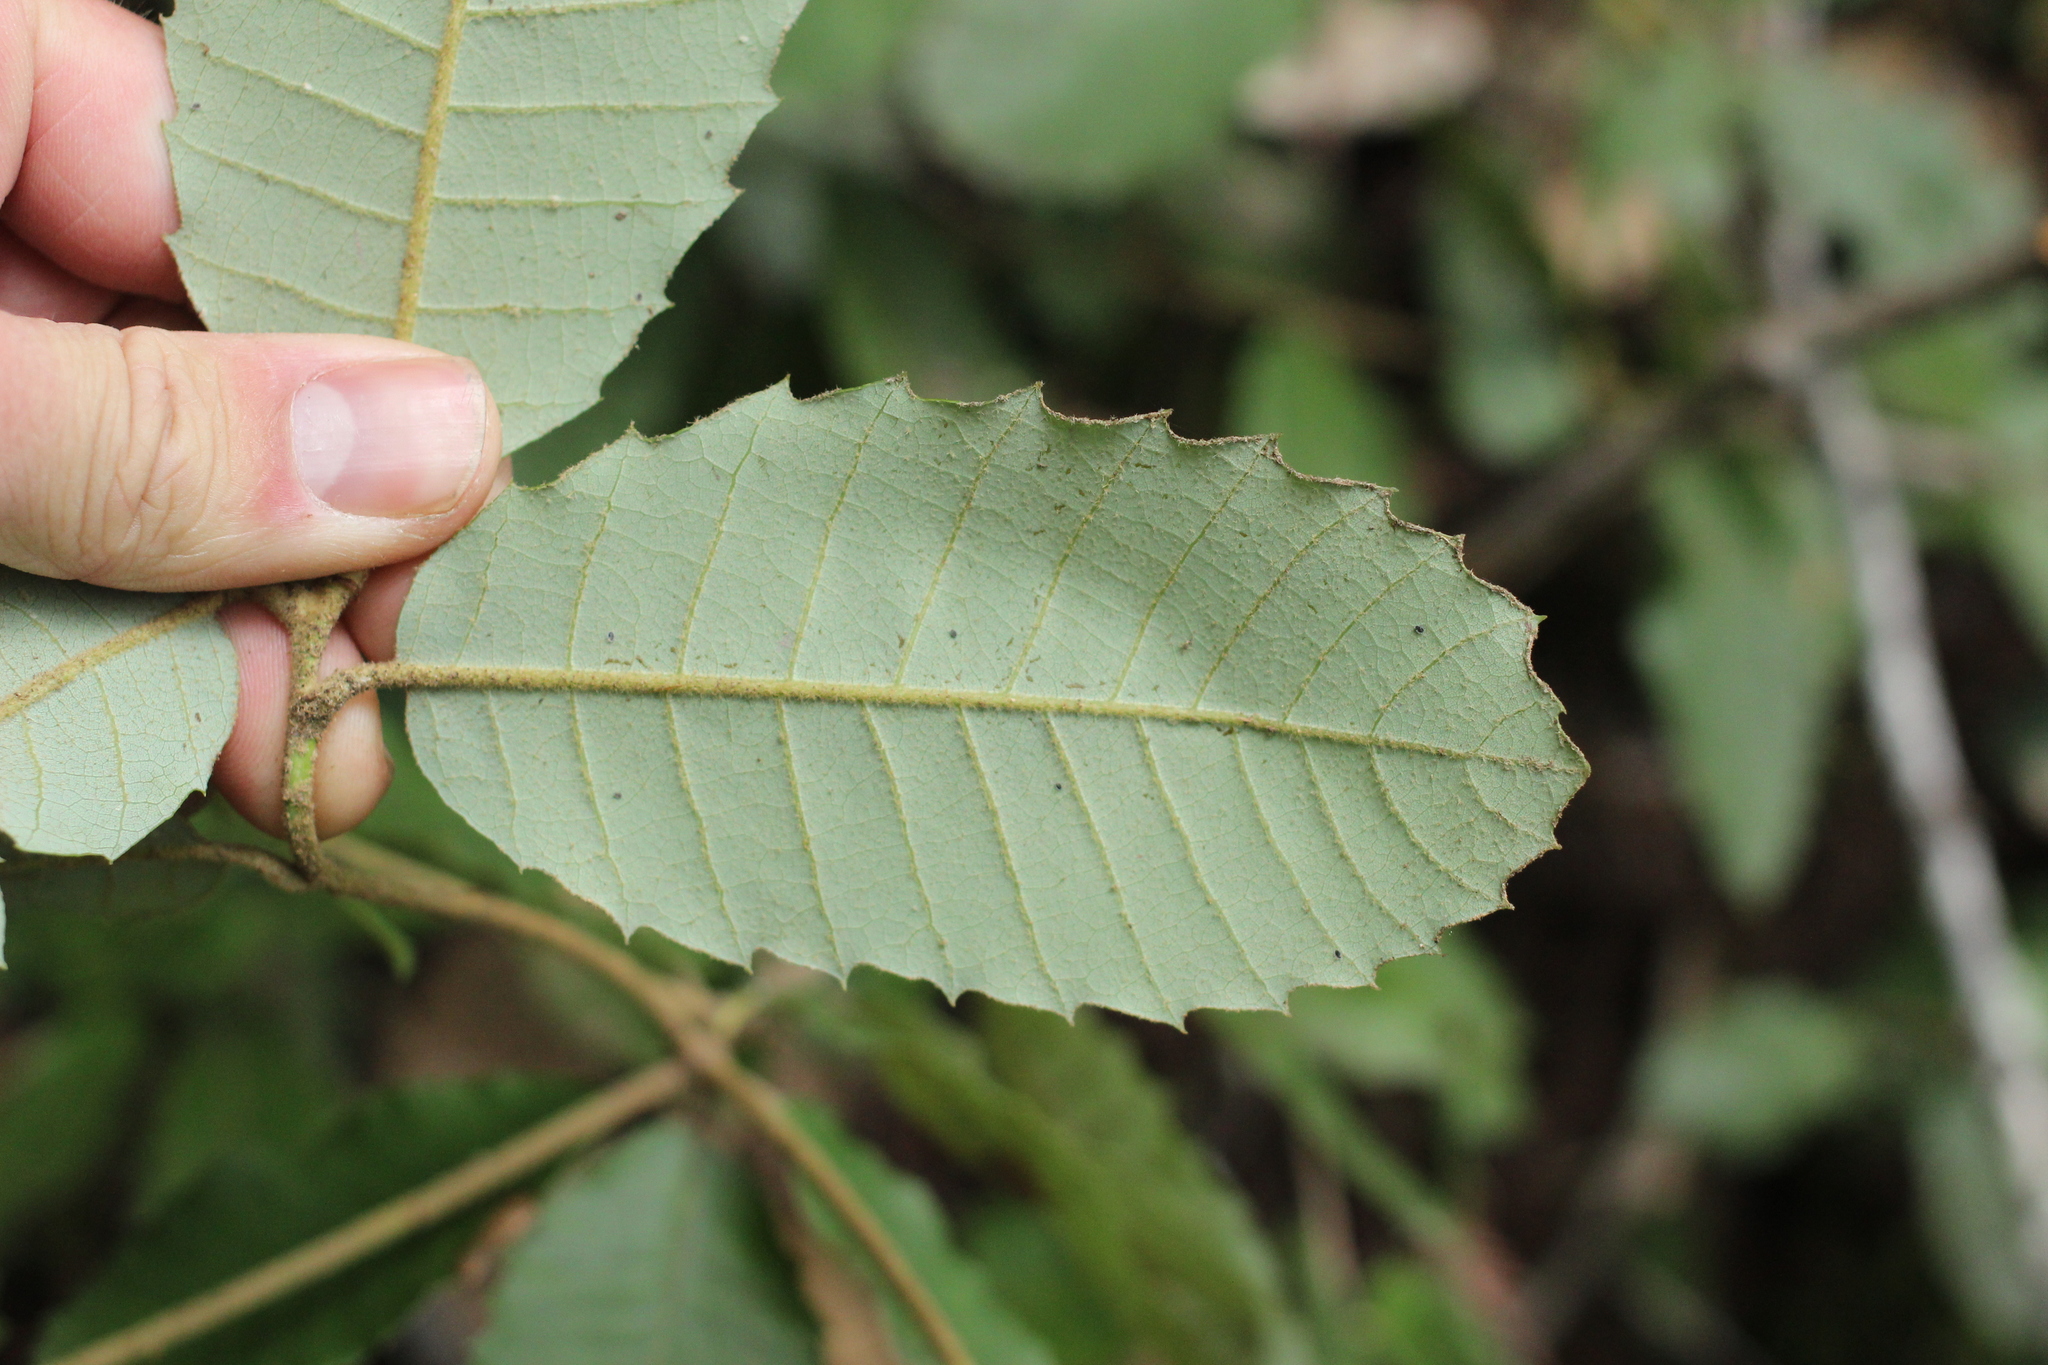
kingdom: Plantae
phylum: Tracheophyta
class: Magnoliopsida
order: Fagales
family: Fagaceae
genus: Notholithocarpus
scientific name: Notholithocarpus densiflorus
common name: Tan bark oak
